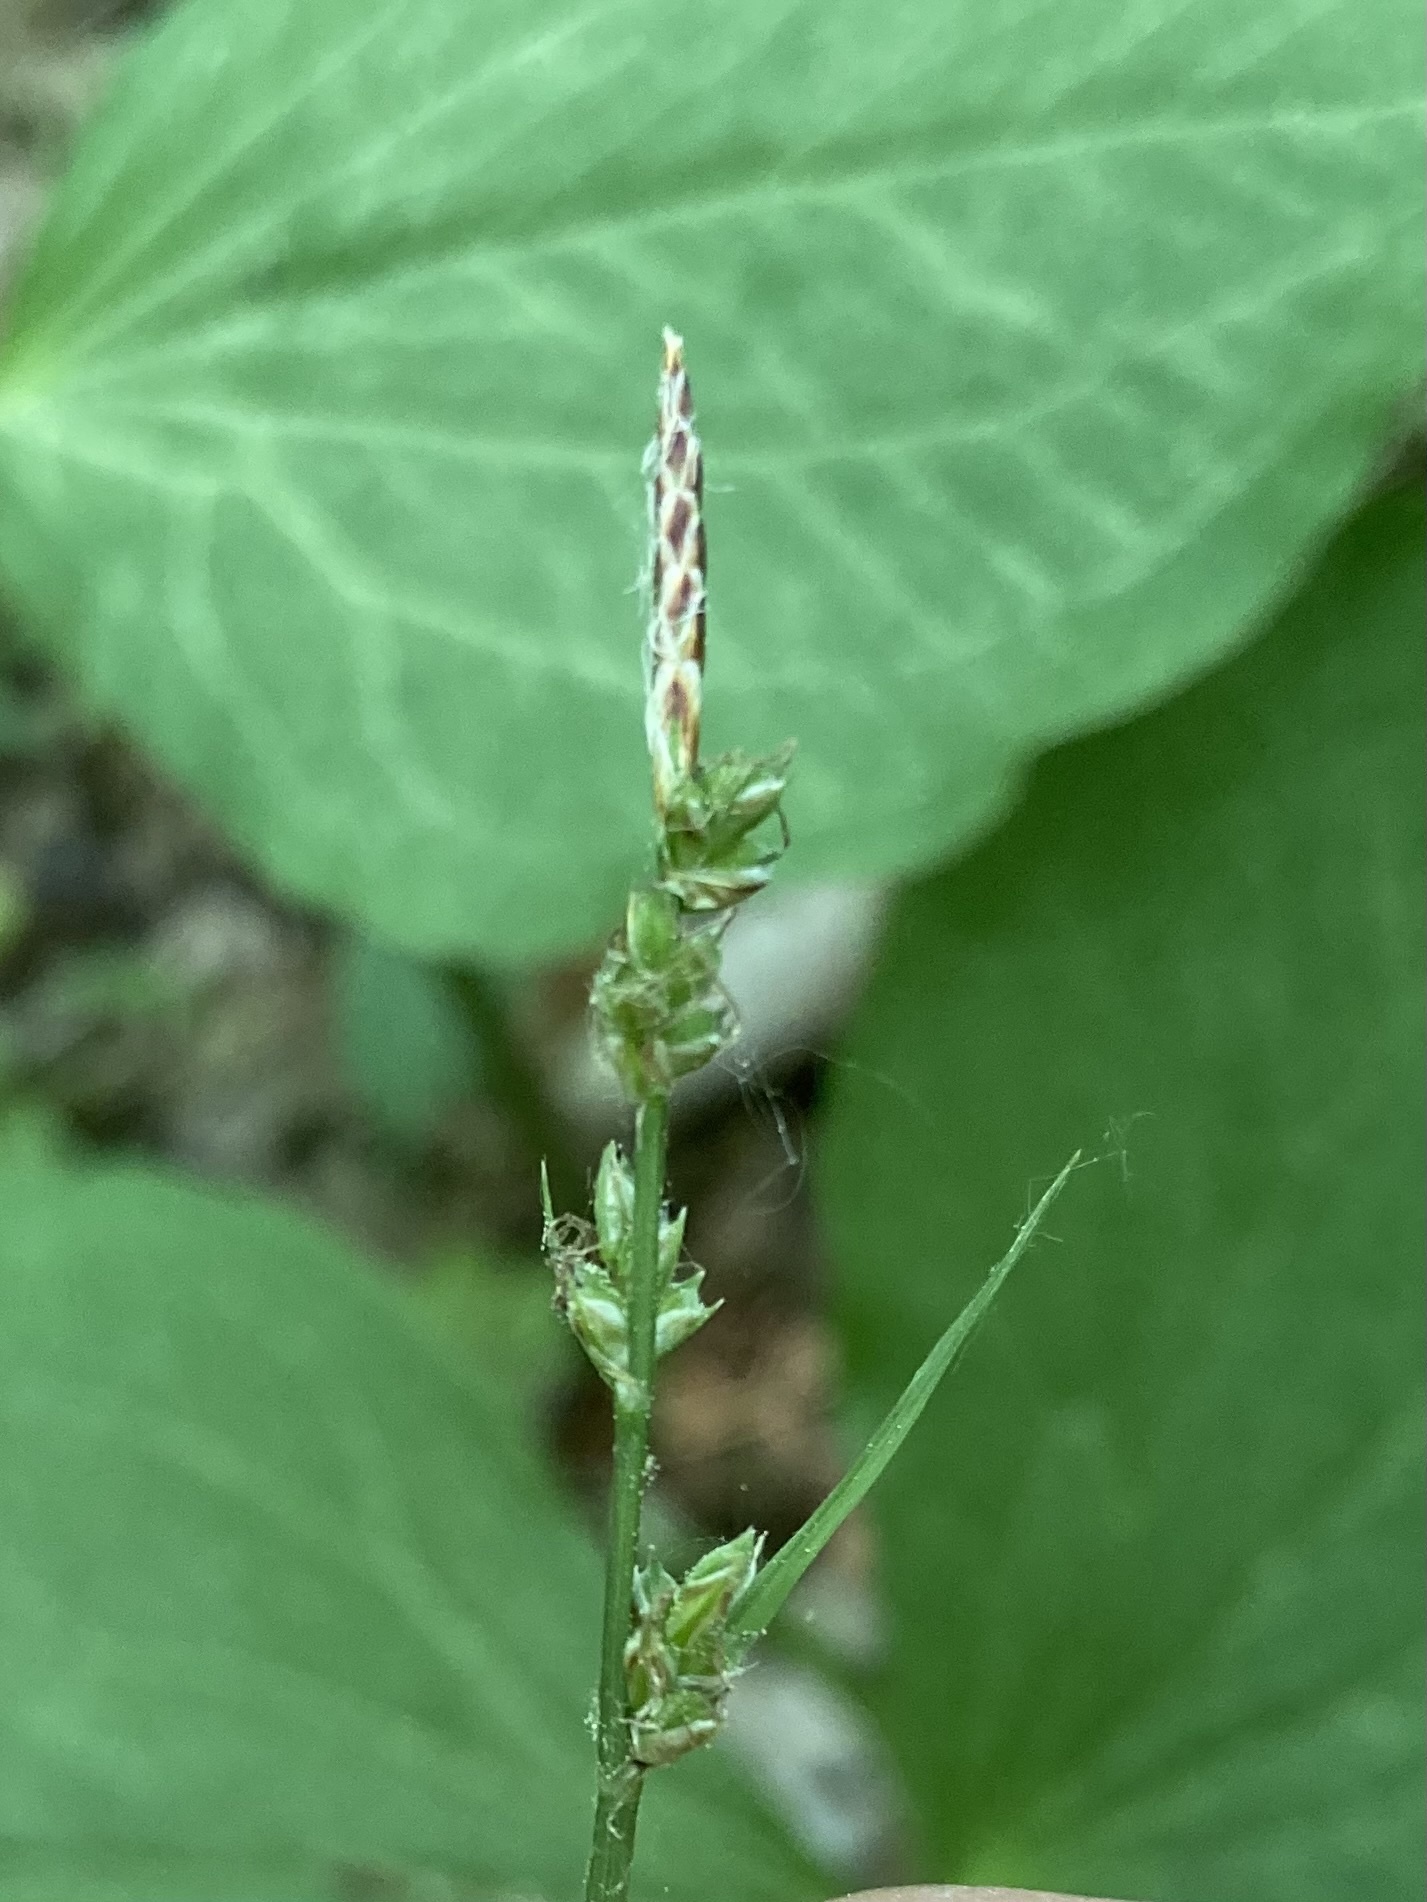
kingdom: Plantae
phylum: Tracheophyta
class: Liliopsida
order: Poales
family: Cyperaceae
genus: Carex
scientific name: Carex communis
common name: Colonial oak sedge
